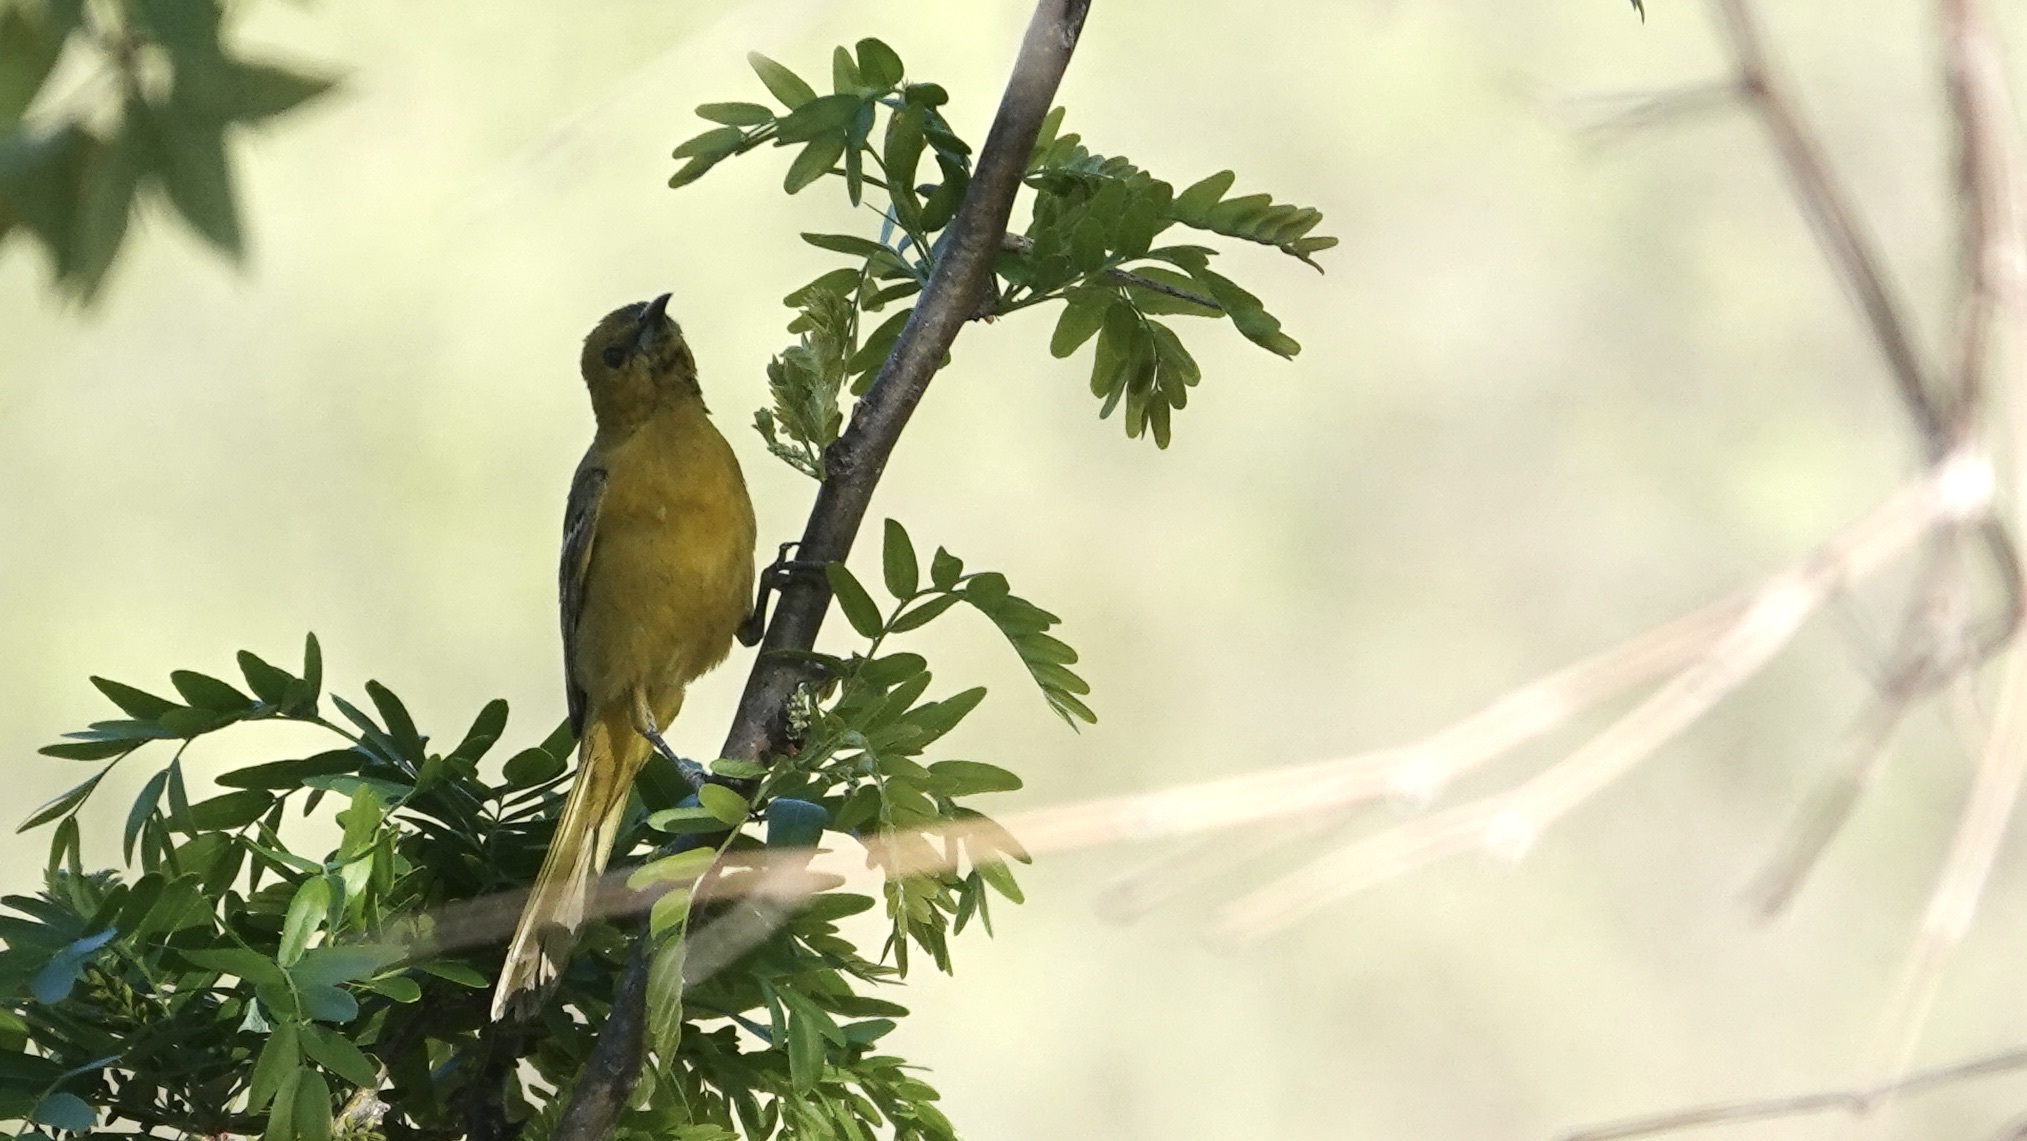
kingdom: Animalia
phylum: Chordata
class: Aves
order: Passeriformes
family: Icteridae
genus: Icterus
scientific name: Icterus parisorum
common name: Scott's oriole
